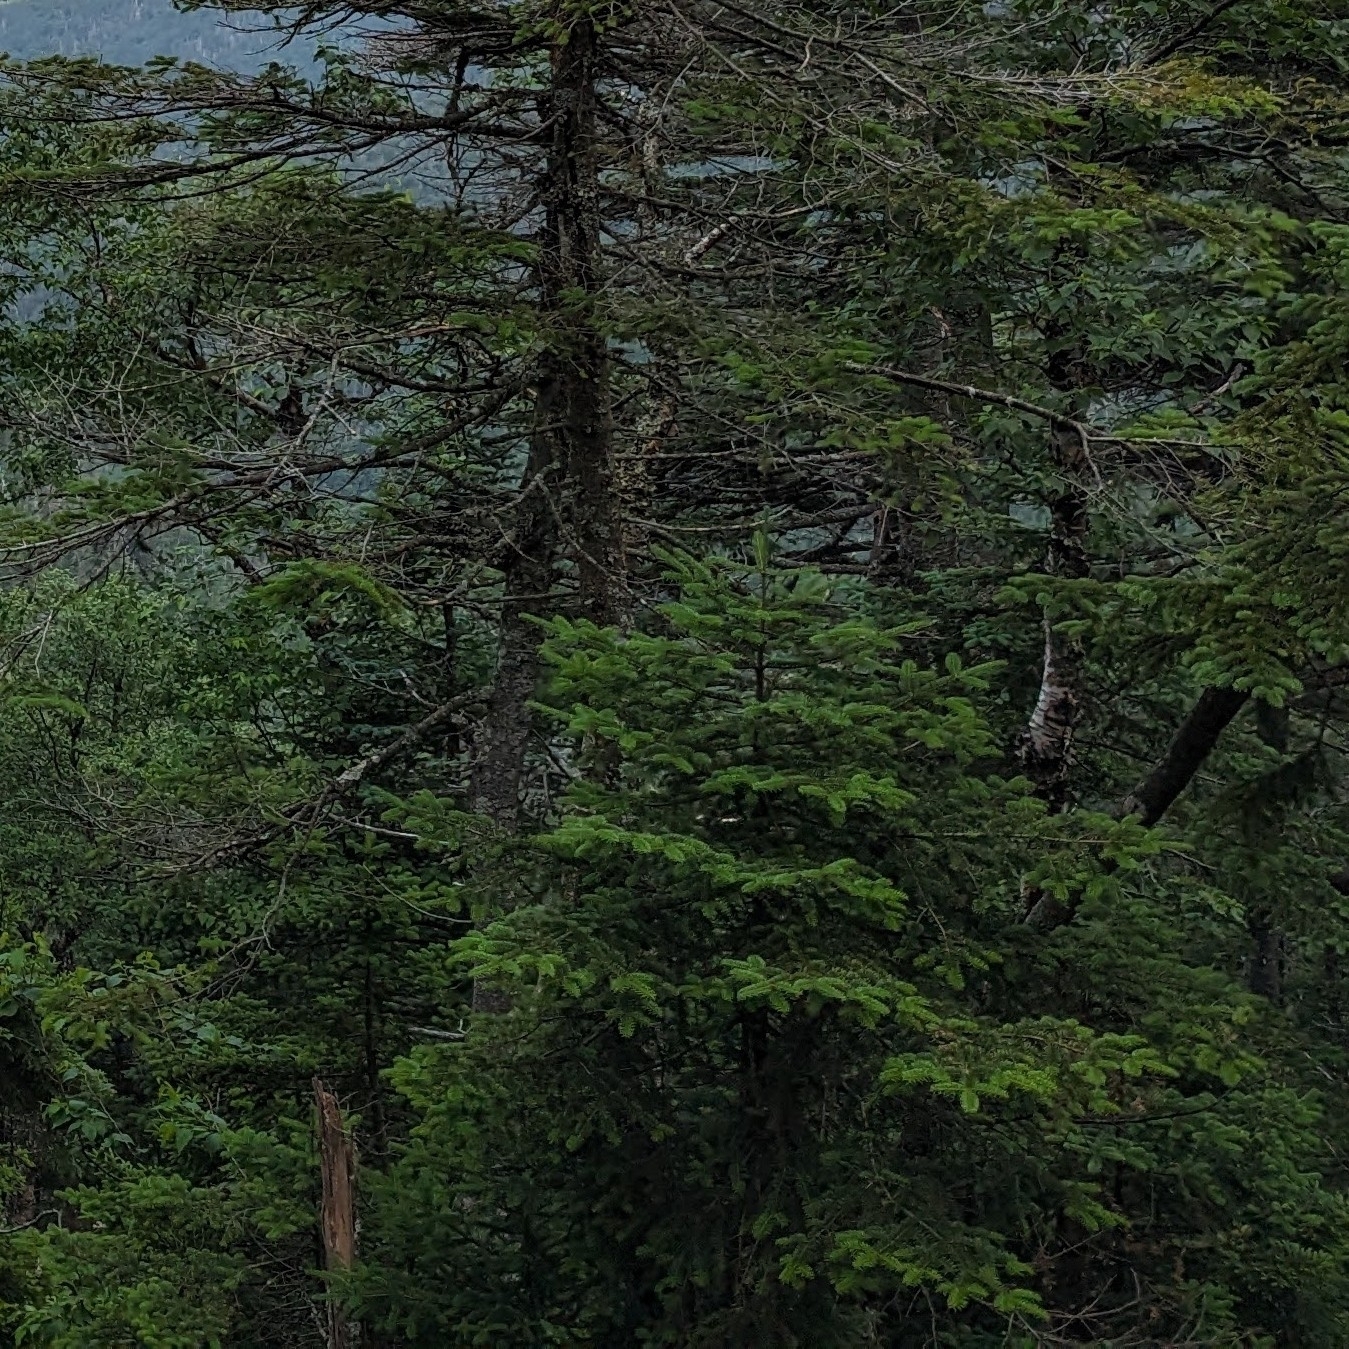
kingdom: Plantae
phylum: Tracheophyta
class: Pinopsida
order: Pinales
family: Pinaceae
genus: Abies
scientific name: Abies balsamea
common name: Balsam fir
